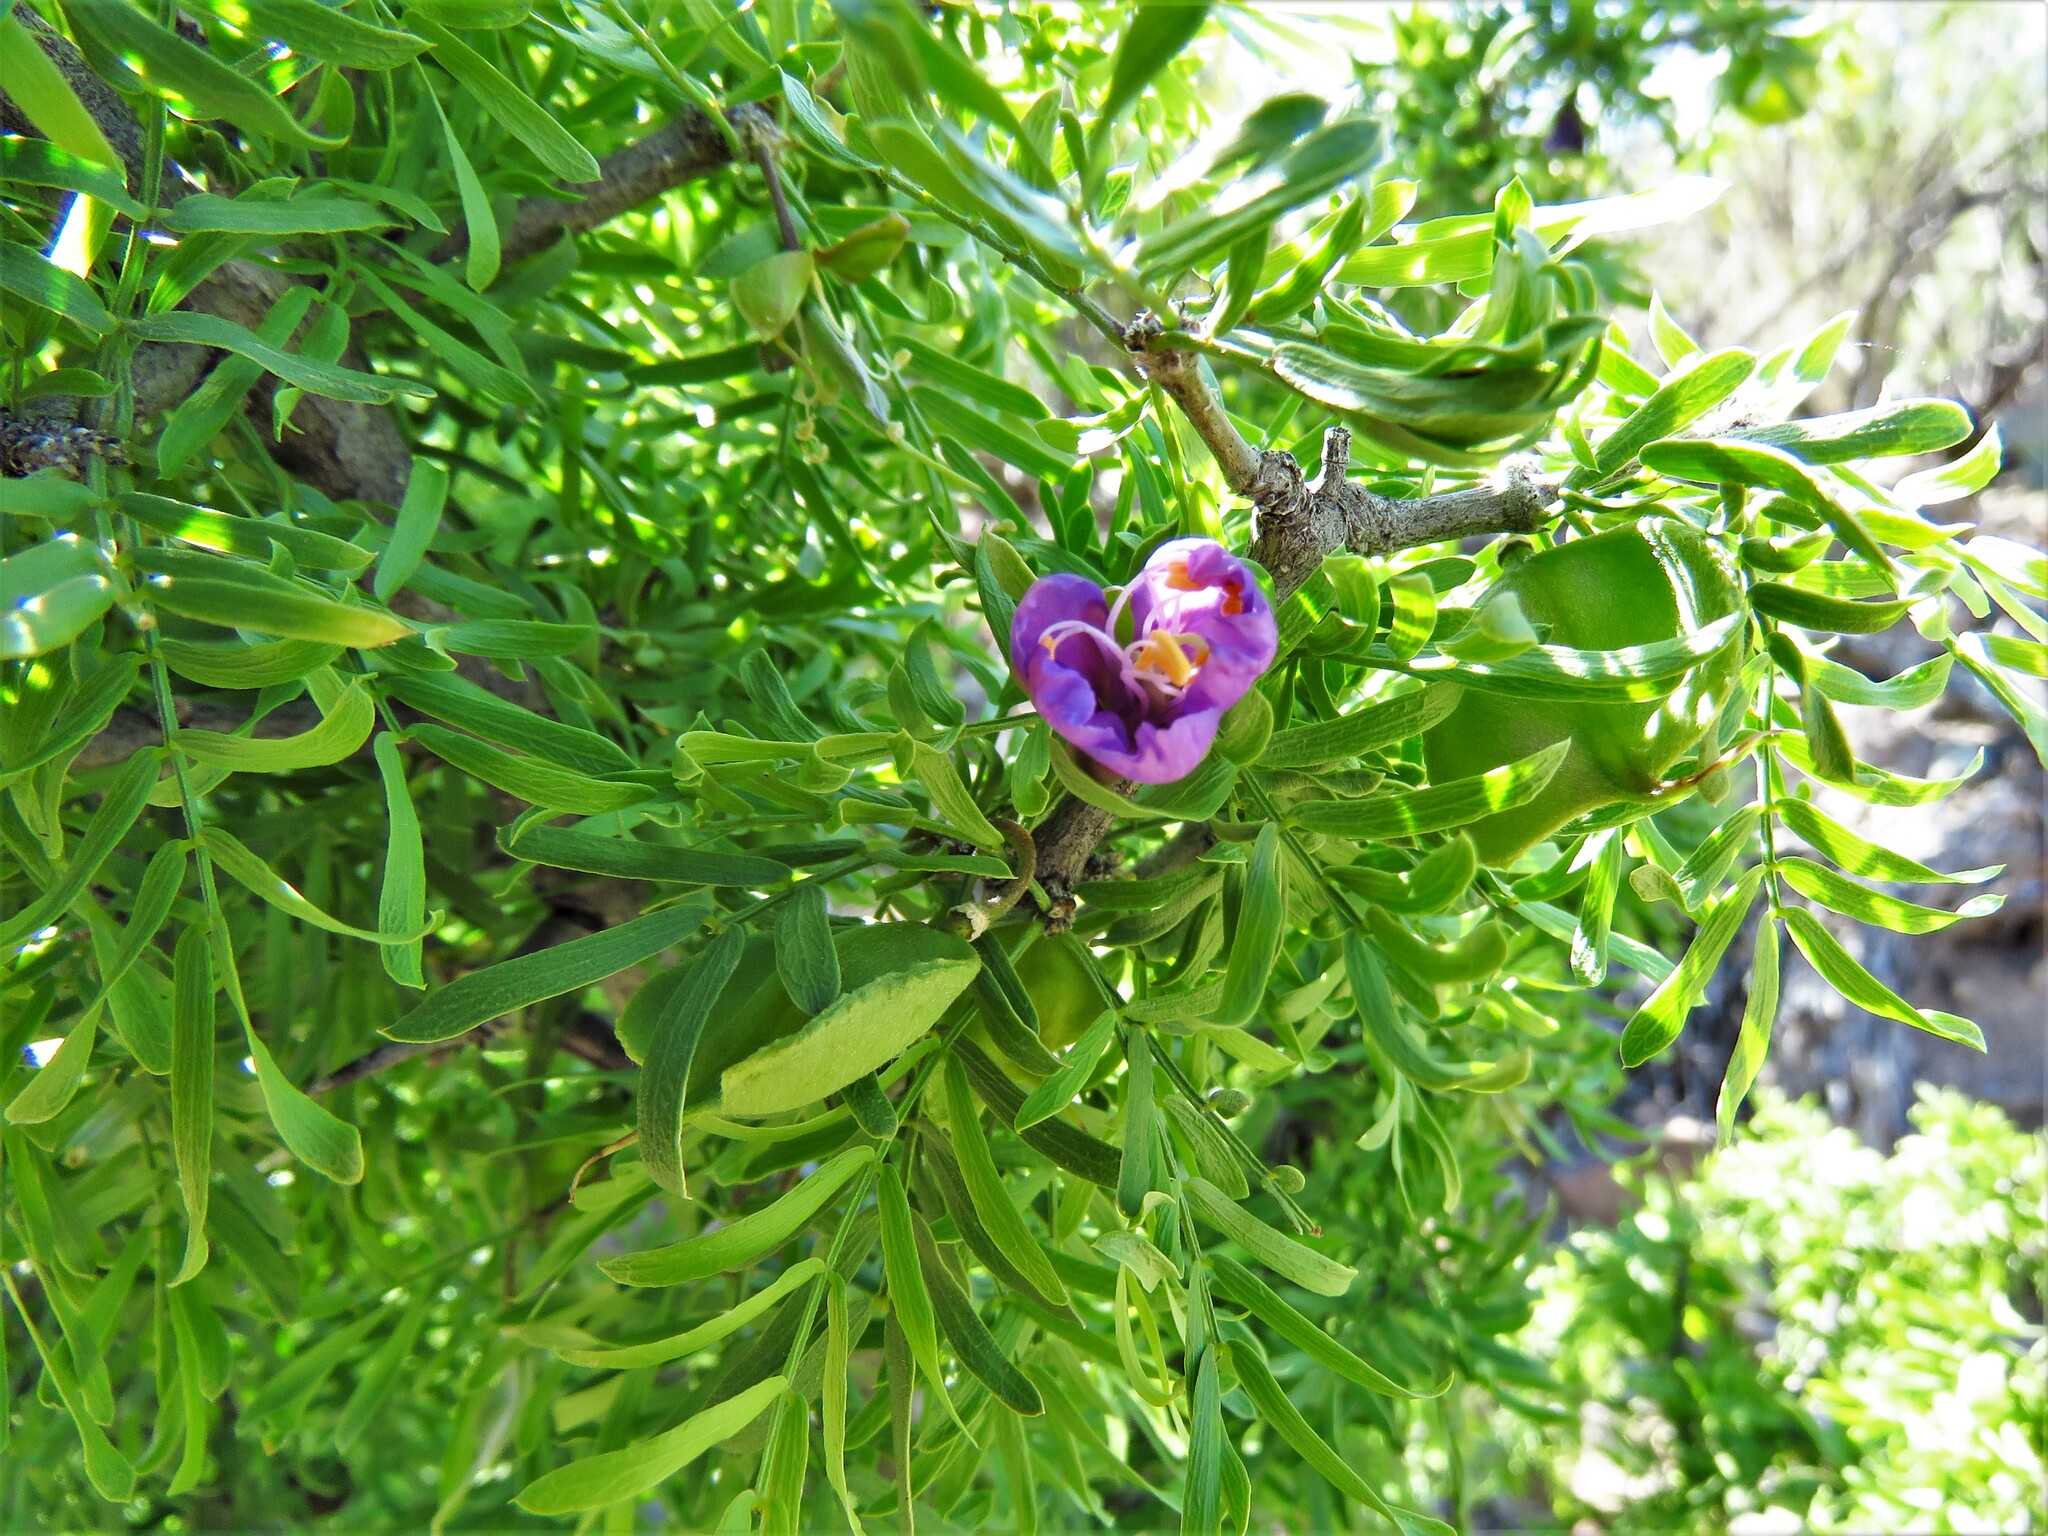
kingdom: Plantae
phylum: Tracheophyta
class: Magnoliopsida
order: Zygophyllales
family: Zygophyllaceae
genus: Porlieria
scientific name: Porlieria angustifolia
